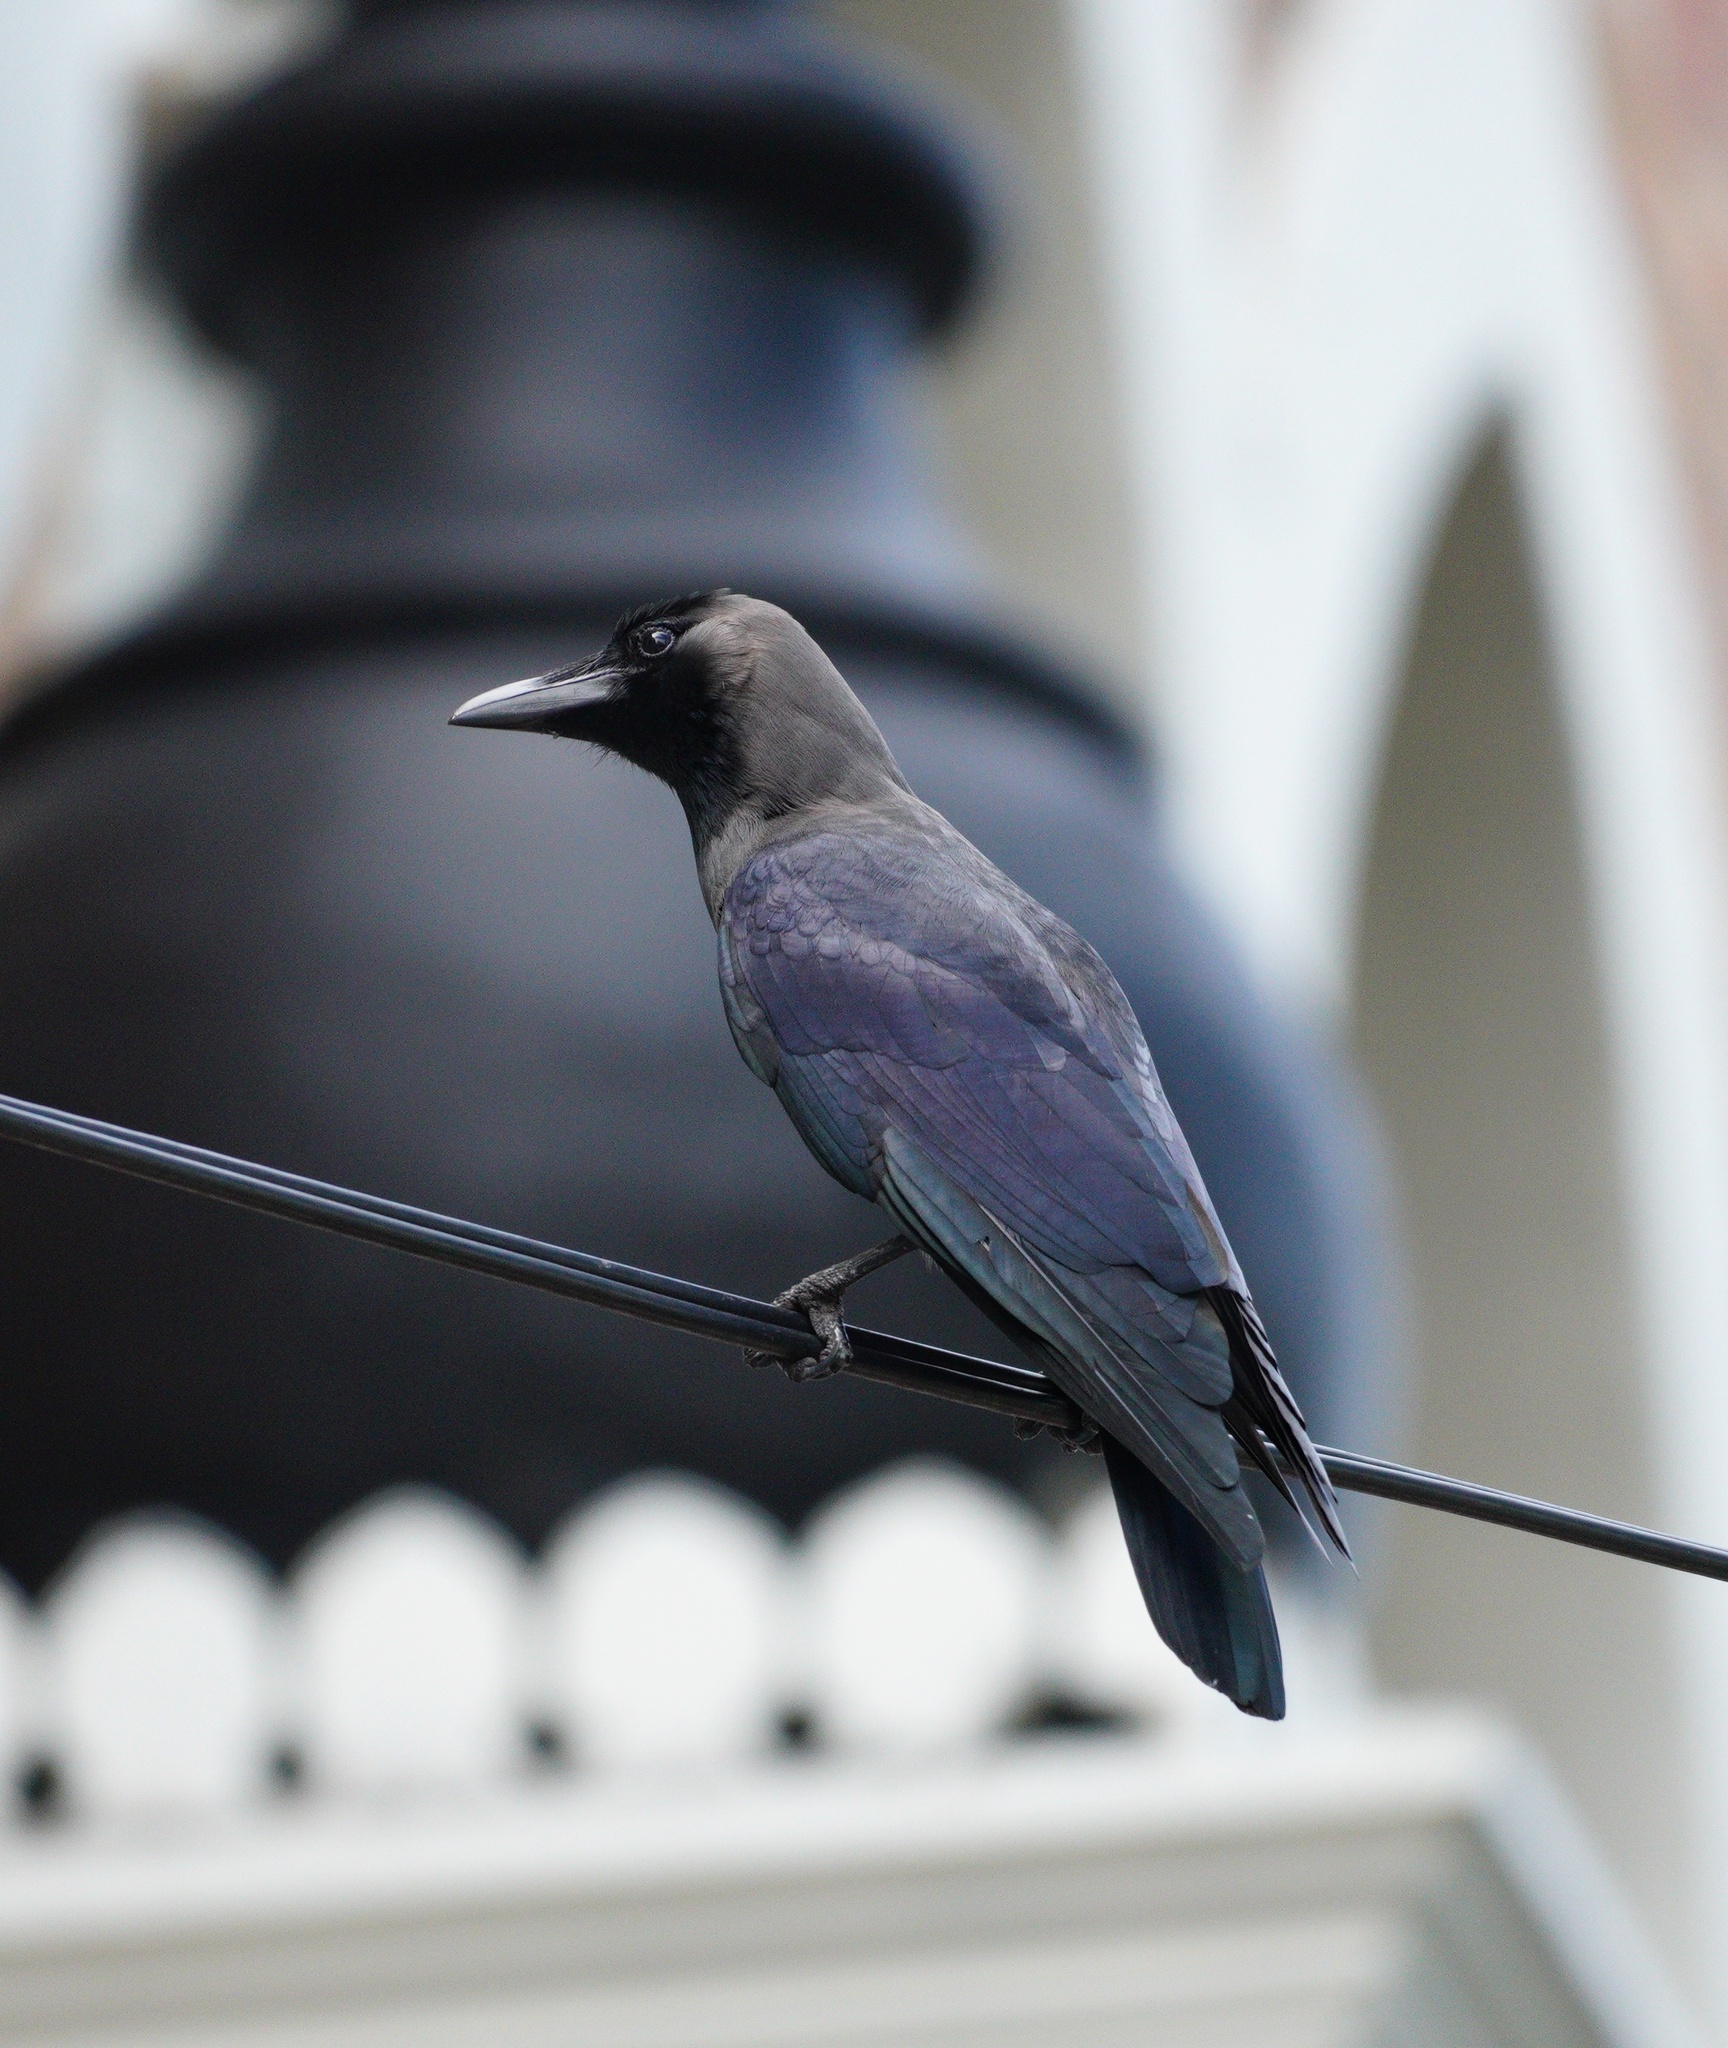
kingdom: Animalia
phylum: Chordata
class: Aves
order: Passeriformes
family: Corvidae
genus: Corvus
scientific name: Corvus splendens
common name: House crow
